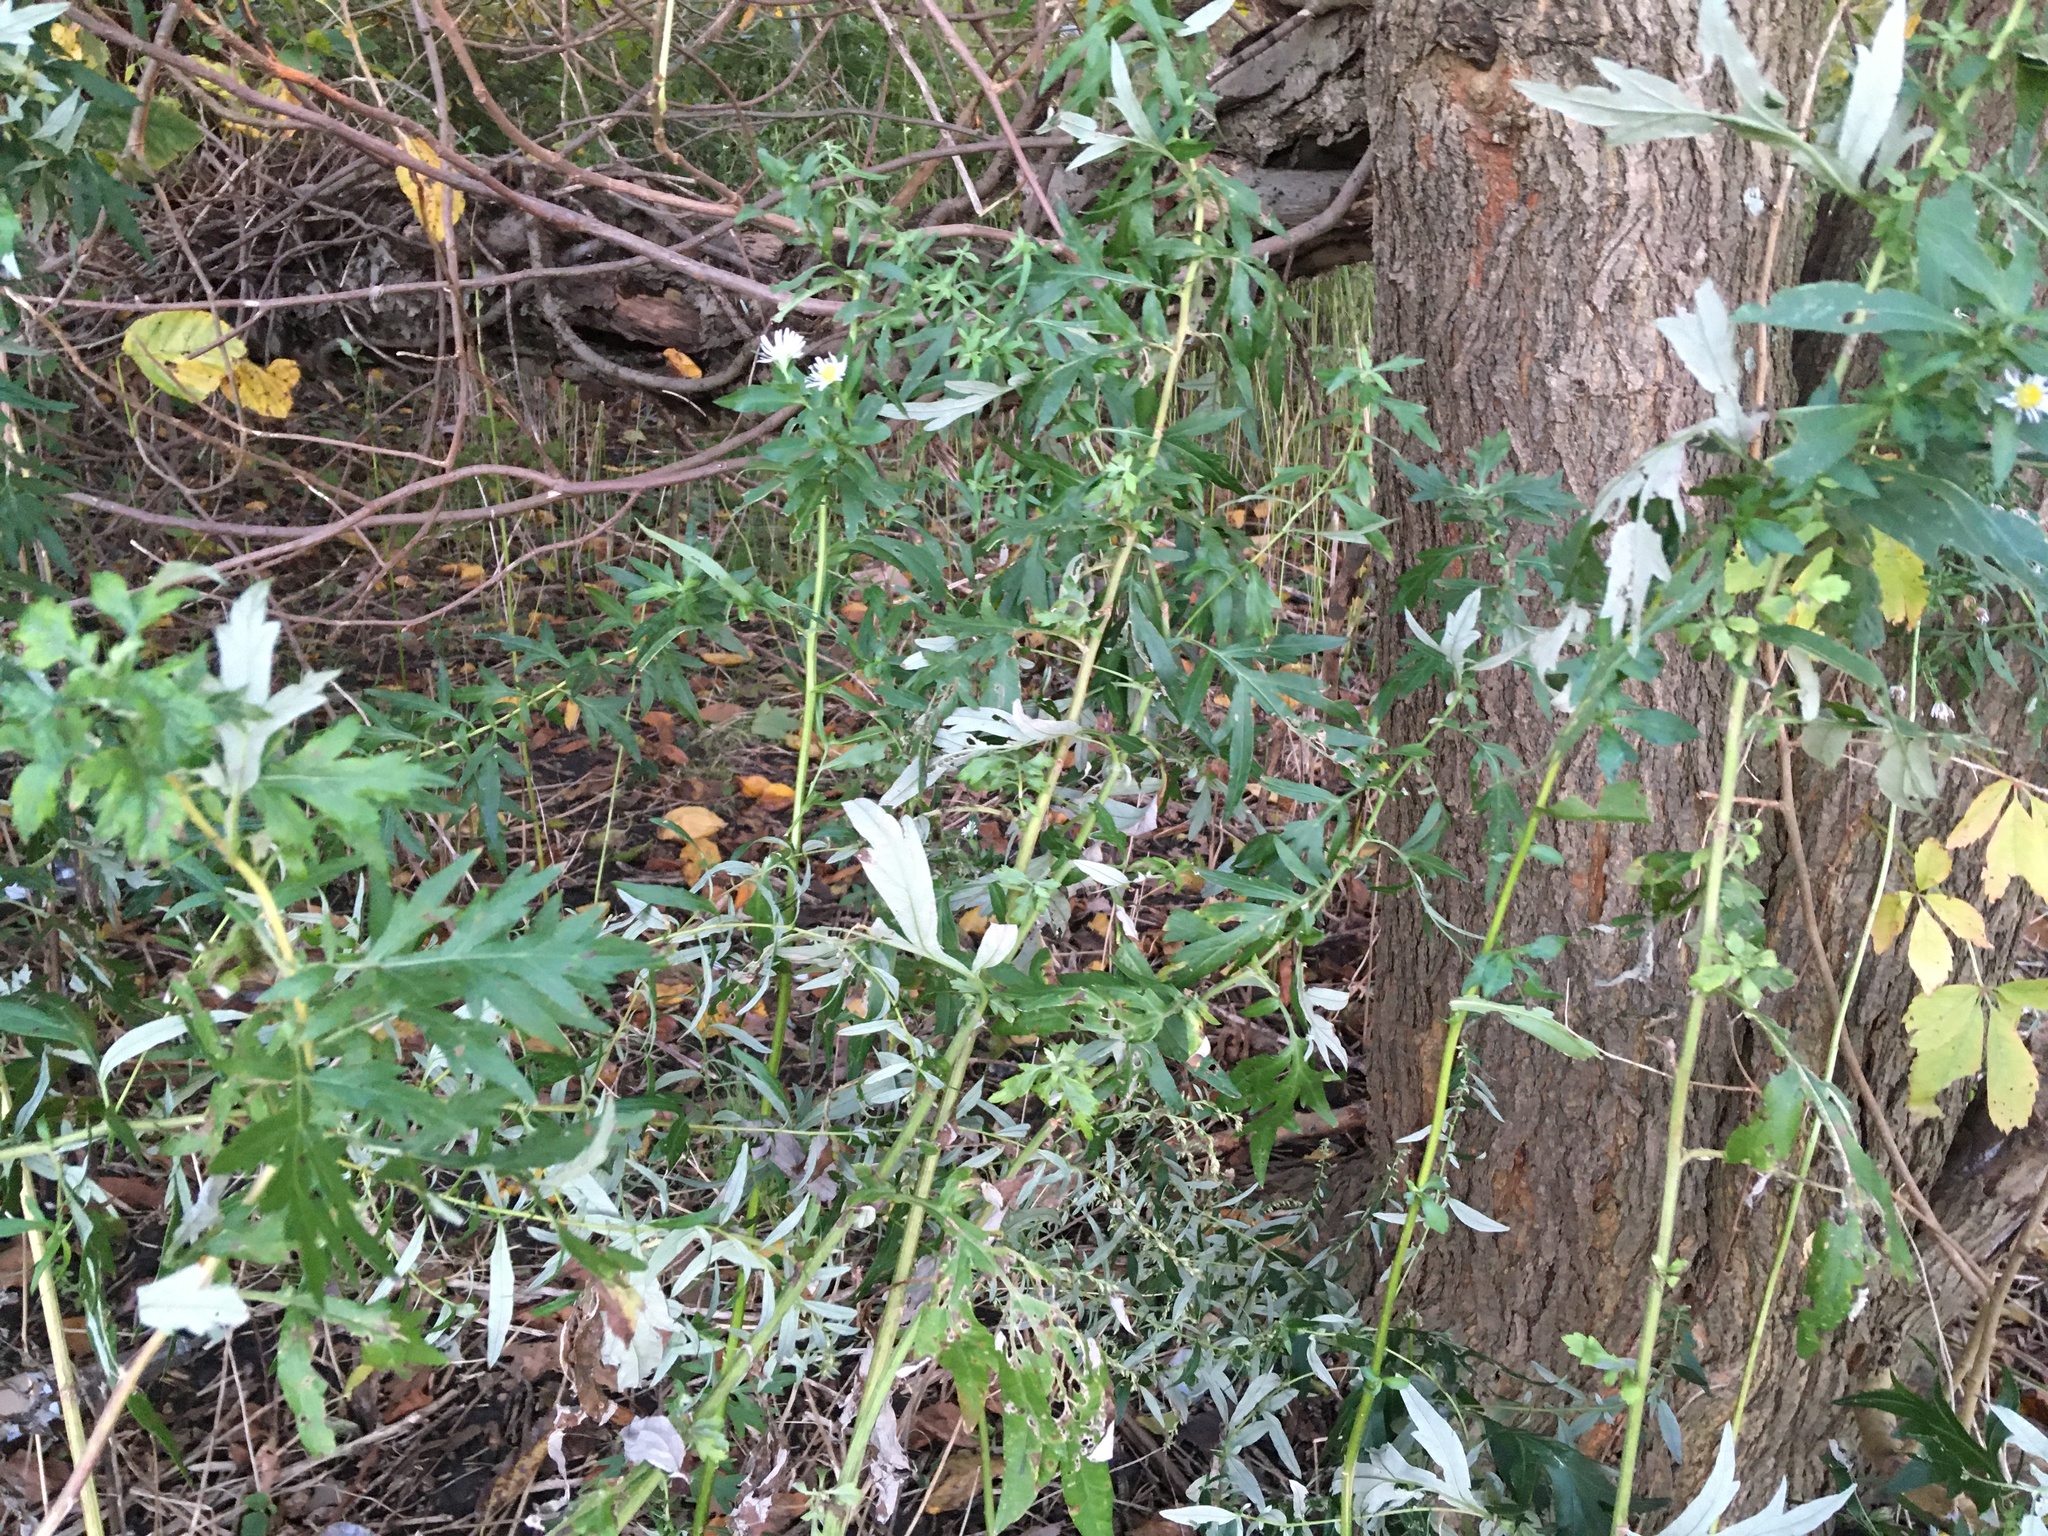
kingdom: Plantae
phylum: Tracheophyta
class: Magnoliopsida
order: Asterales
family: Asteraceae
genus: Artemisia
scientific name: Artemisia vulgaris
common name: Mugwort
